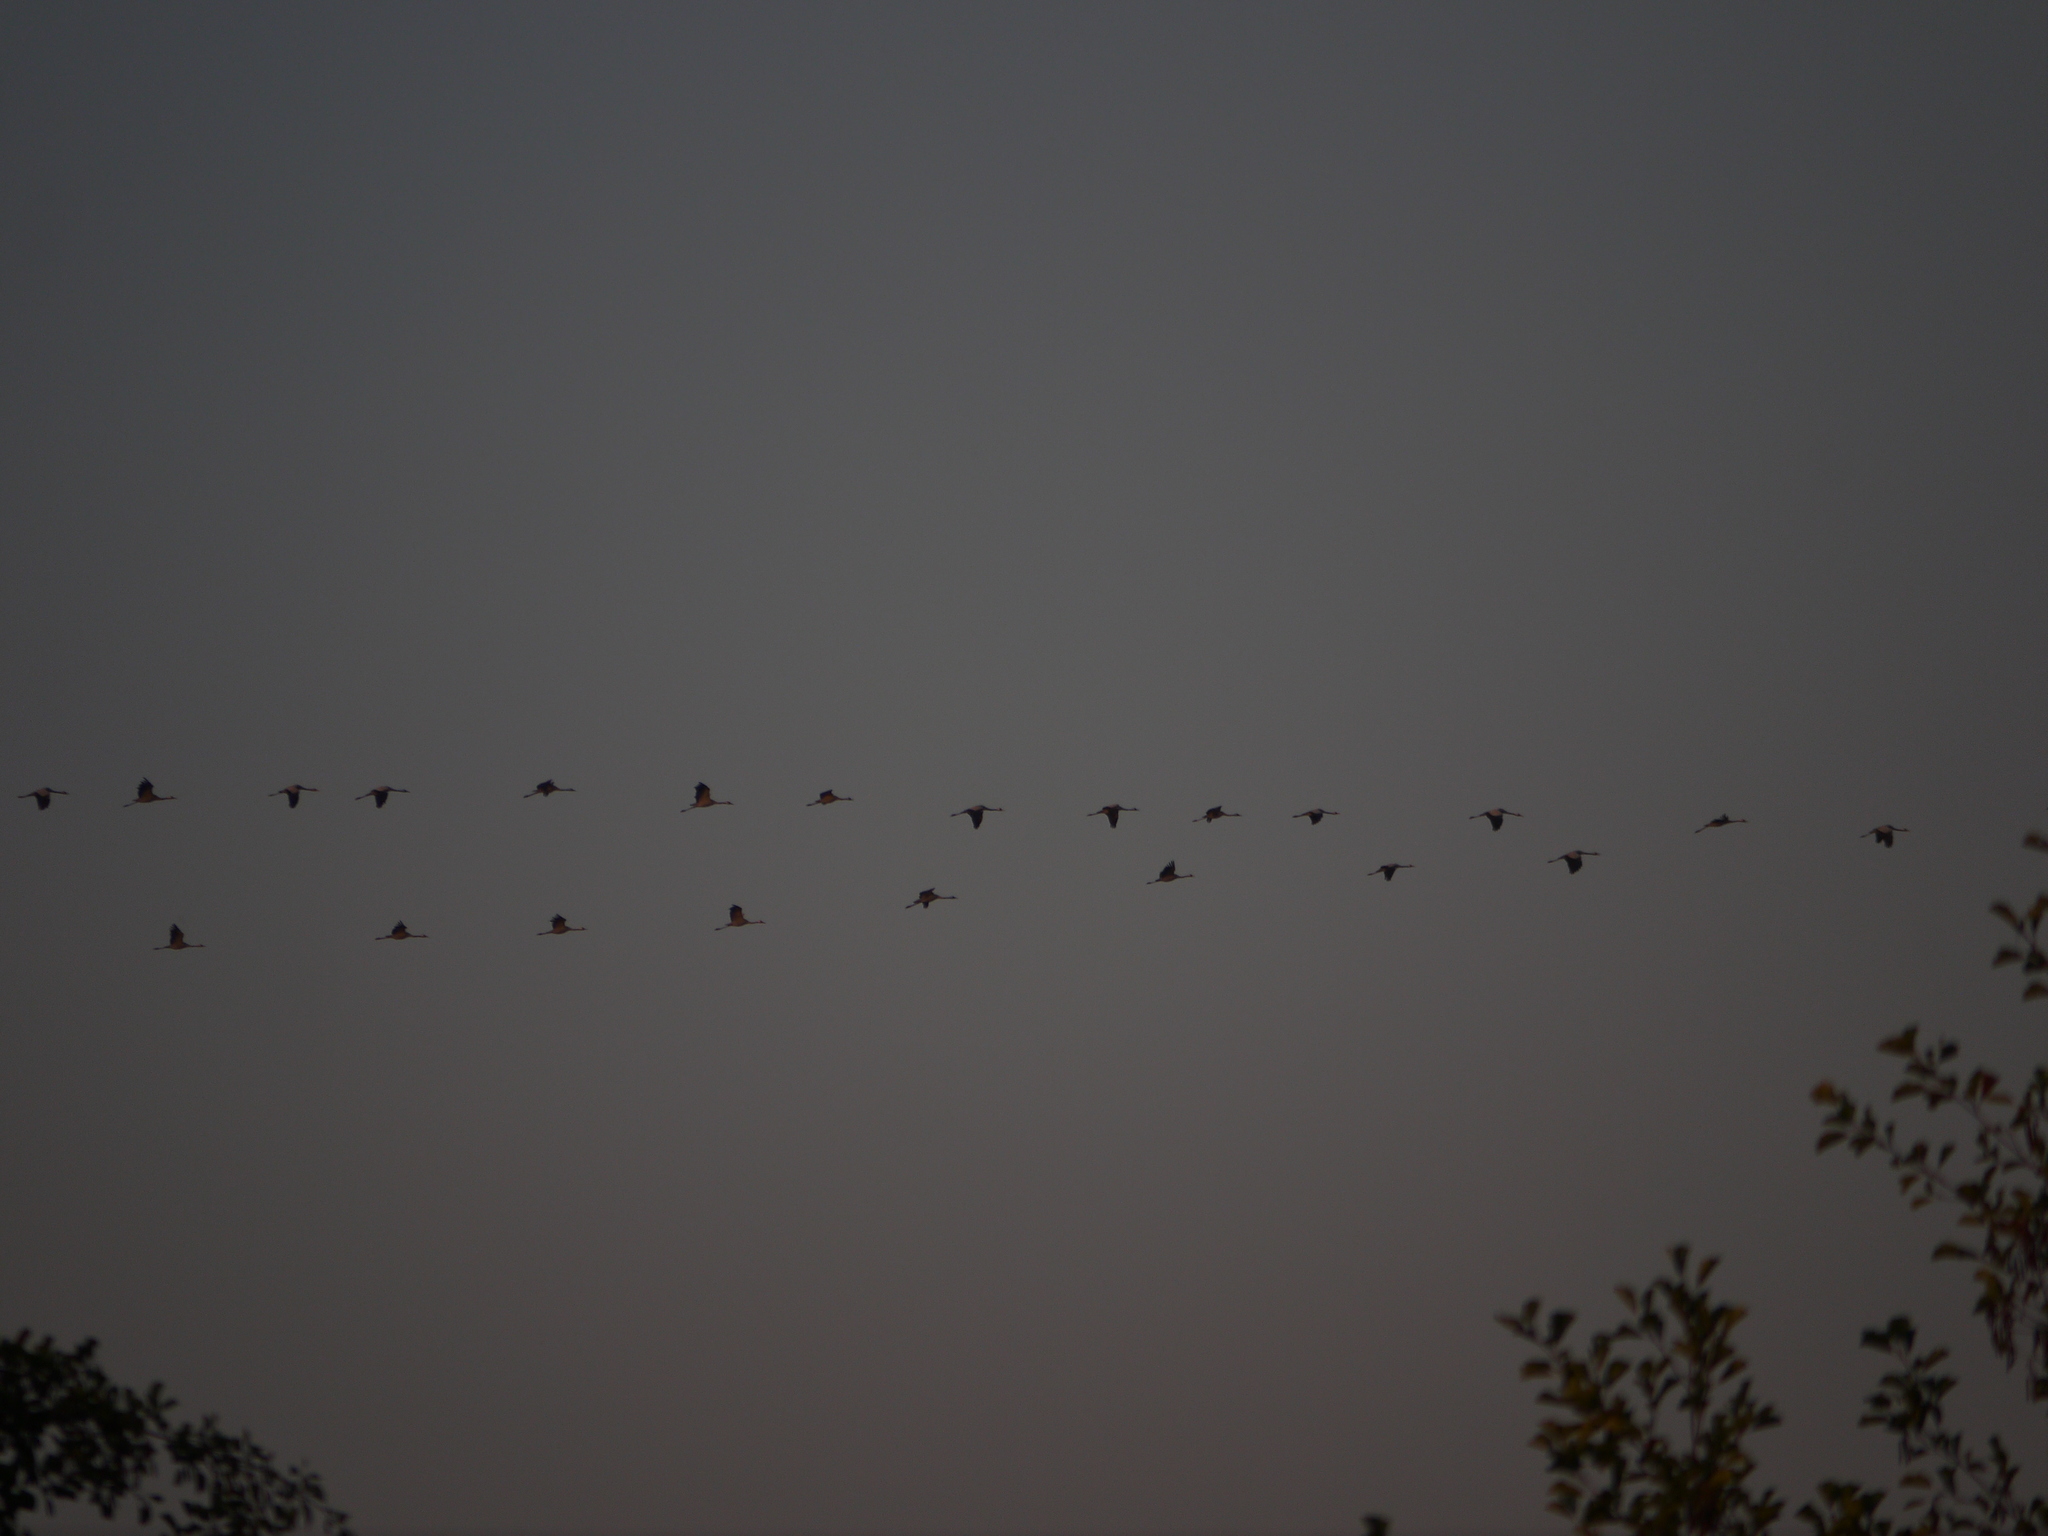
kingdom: Animalia
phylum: Chordata
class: Aves
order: Gruiformes
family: Gruidae
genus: Grus
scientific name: Grus grus
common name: Common crane
